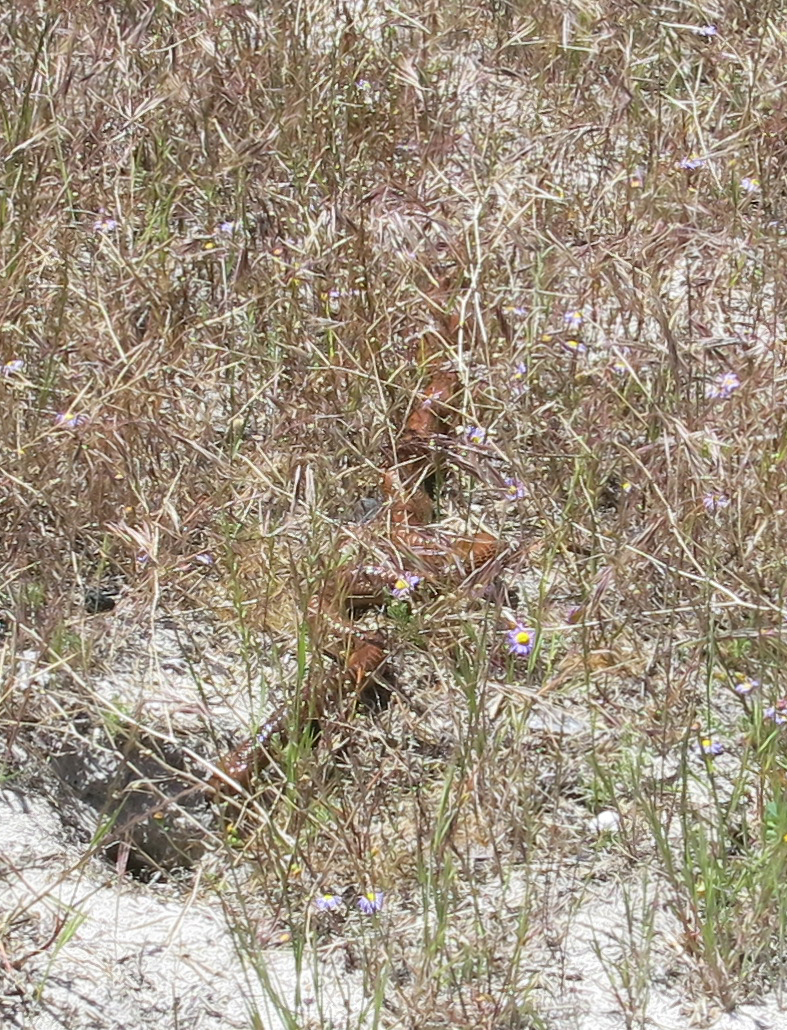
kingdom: Animalia
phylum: Chordata
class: Squamata
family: Elapidae
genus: Naja
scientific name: Naja nivea
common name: Cape cobra
